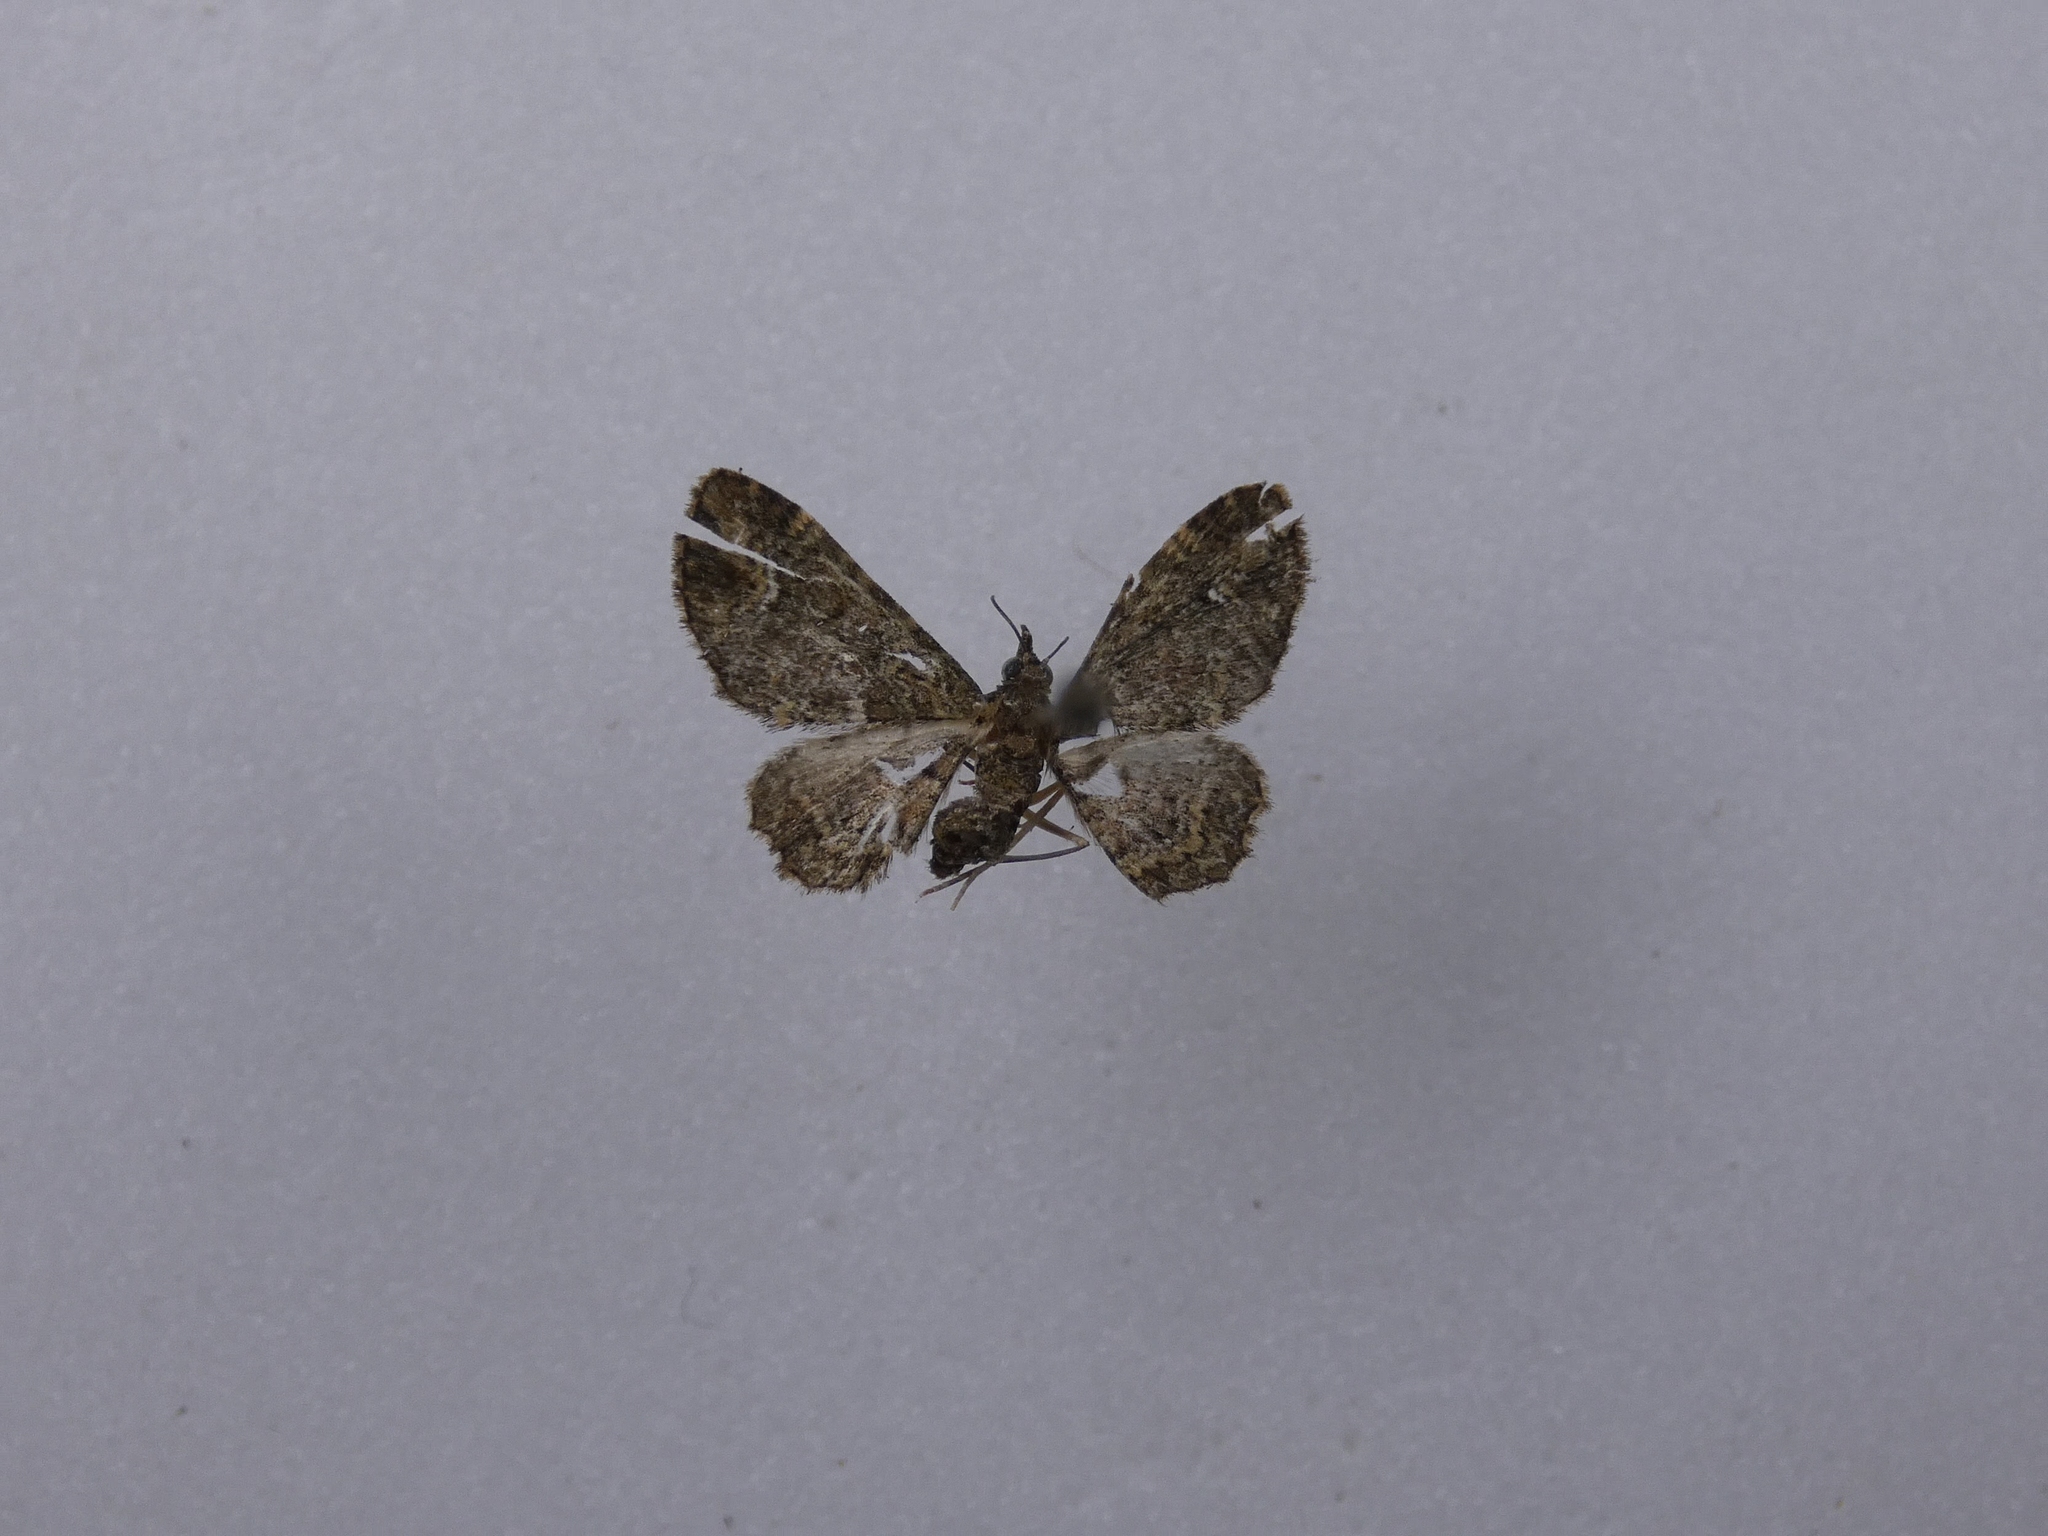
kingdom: Animalia
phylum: Arthropoda
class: Insecta
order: Lepidoptera
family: Geometridae
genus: Pasiphilodes
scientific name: Pasiphilodes testulata
